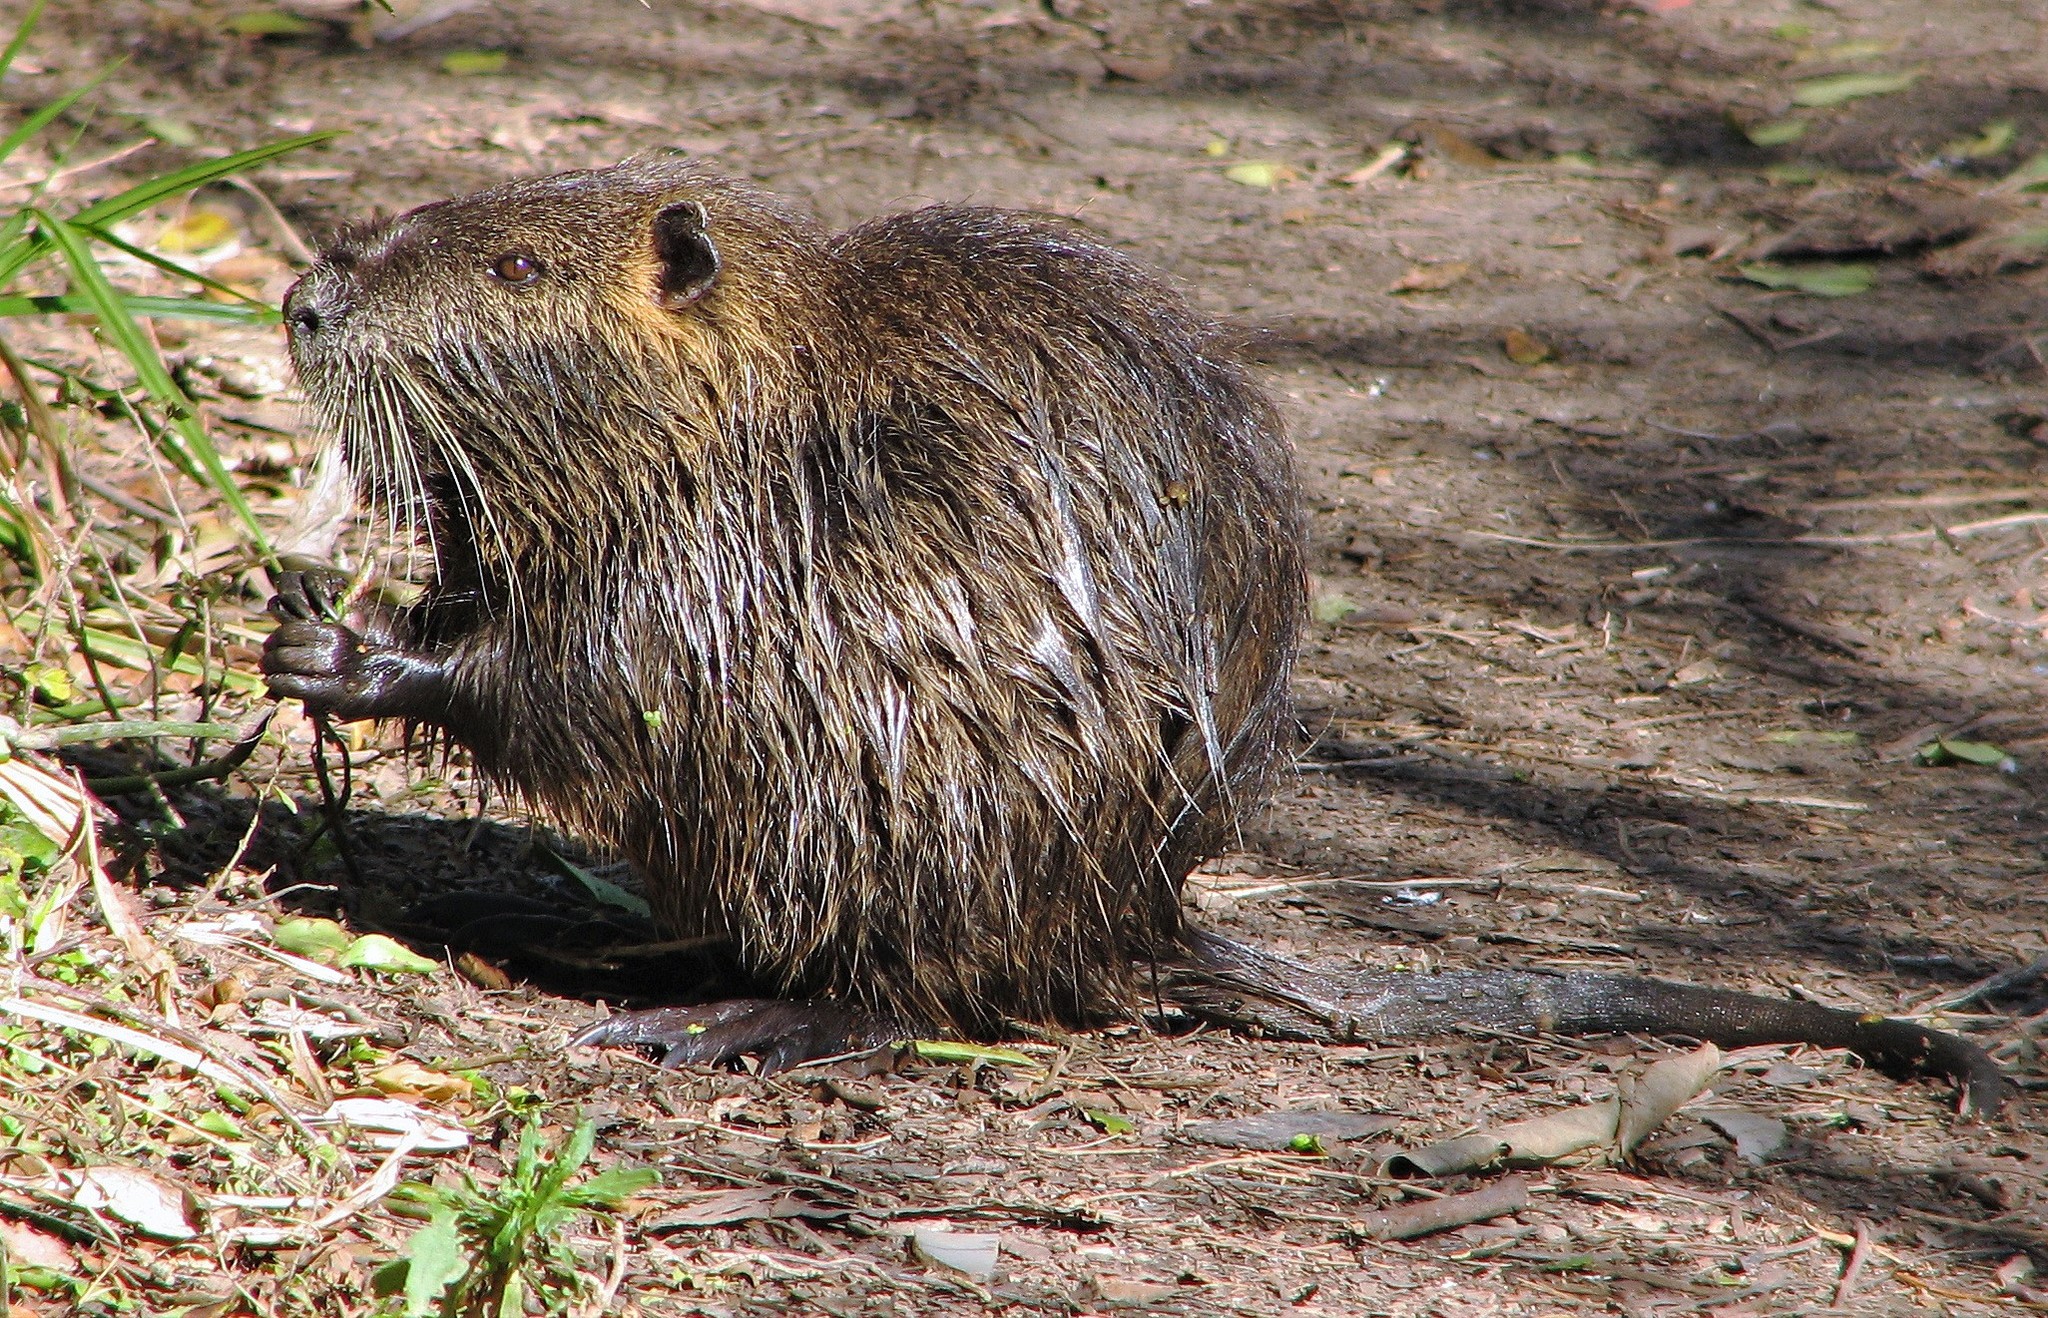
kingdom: Animalia
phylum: Chordata
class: Mammalia
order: Rodentia
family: Myocastoridae
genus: Myocastor
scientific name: Myocastor coypus
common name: Coypu
